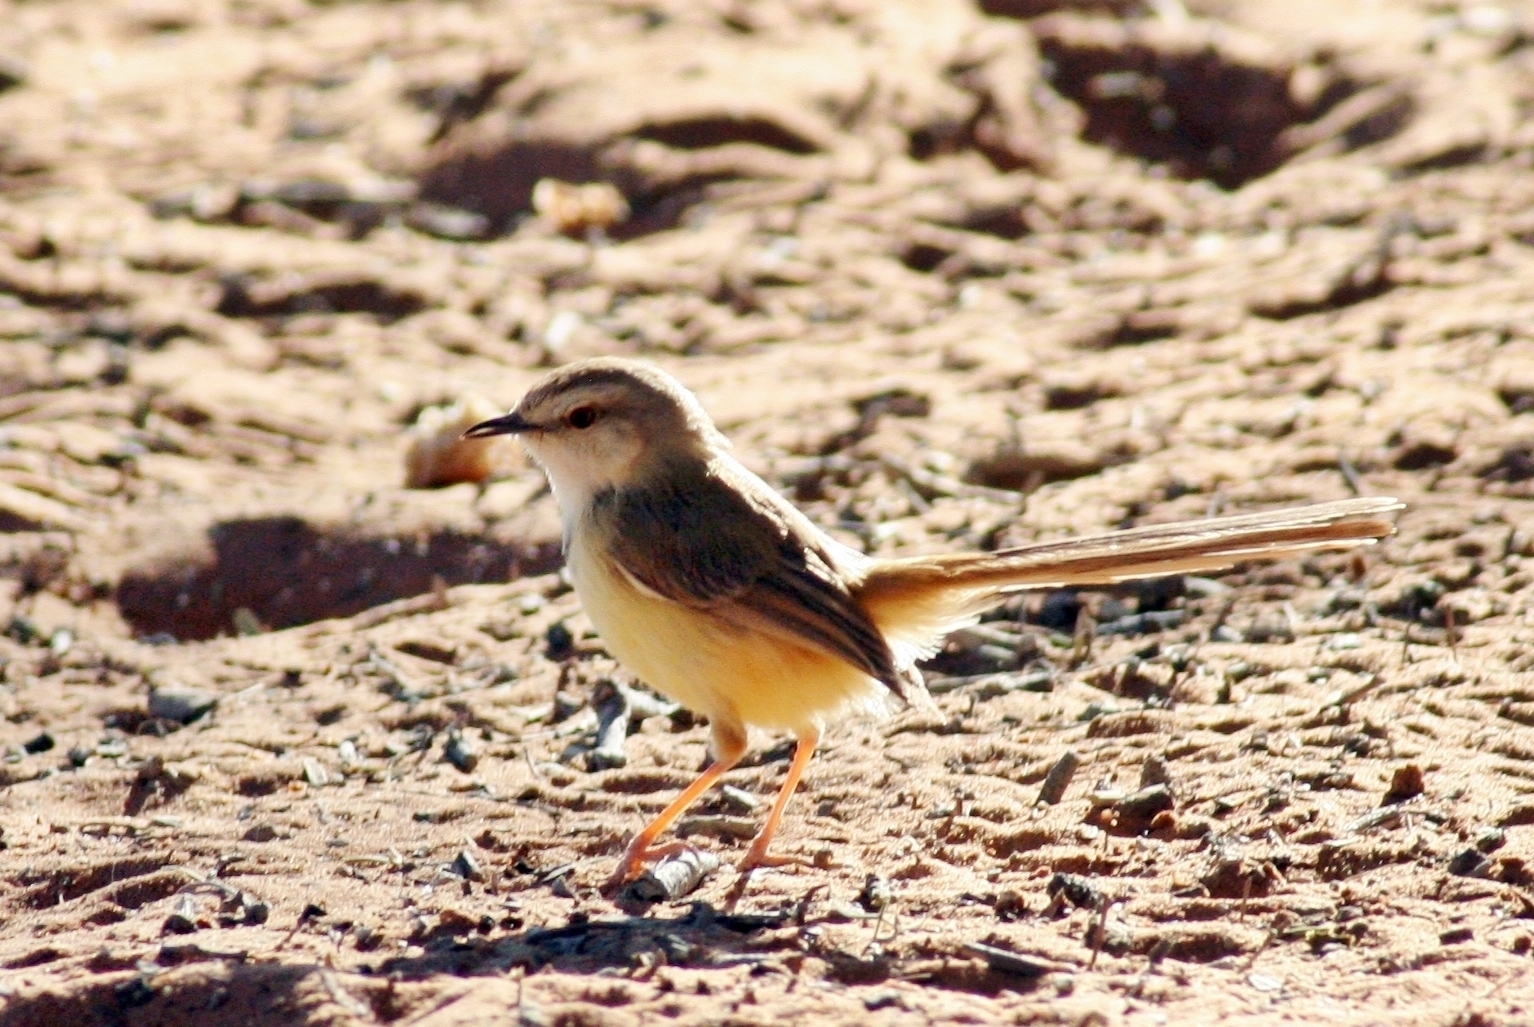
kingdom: Animalia
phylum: Chordata
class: Aves
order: Passeriformes
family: Cisticolidae
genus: Prinia
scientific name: Prinia flavicans
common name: Black-chested prinia
